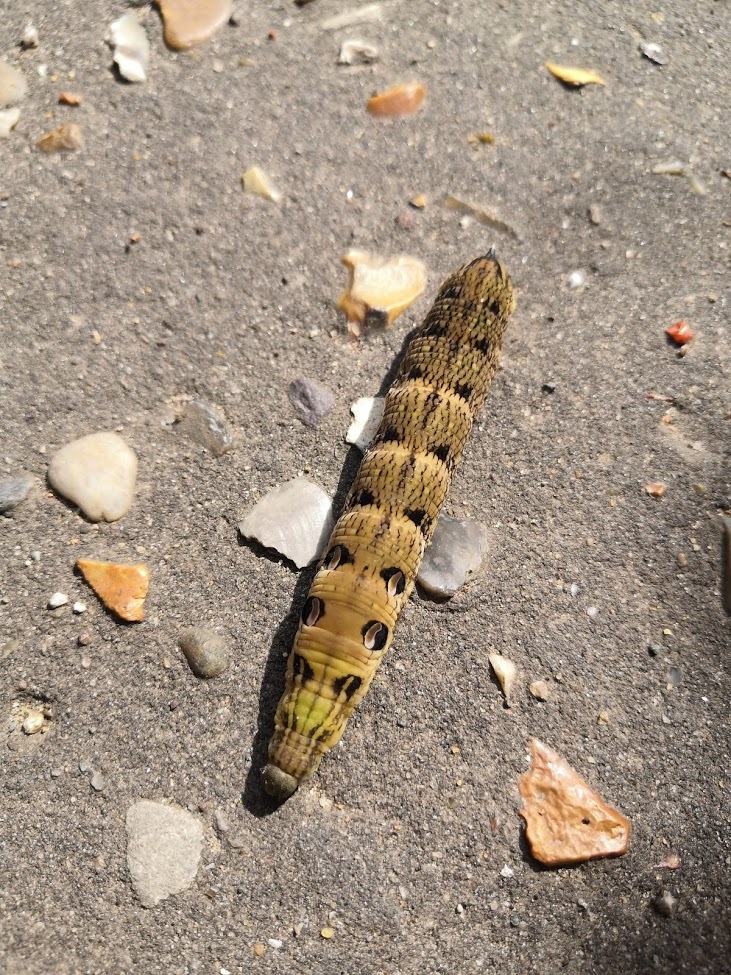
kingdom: Animalia
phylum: Arthropoda
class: Insecta
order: Lepidoptera
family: Sphingidae
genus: Deilephila
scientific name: Deilephila elpenor
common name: Elephant hawk-moth
